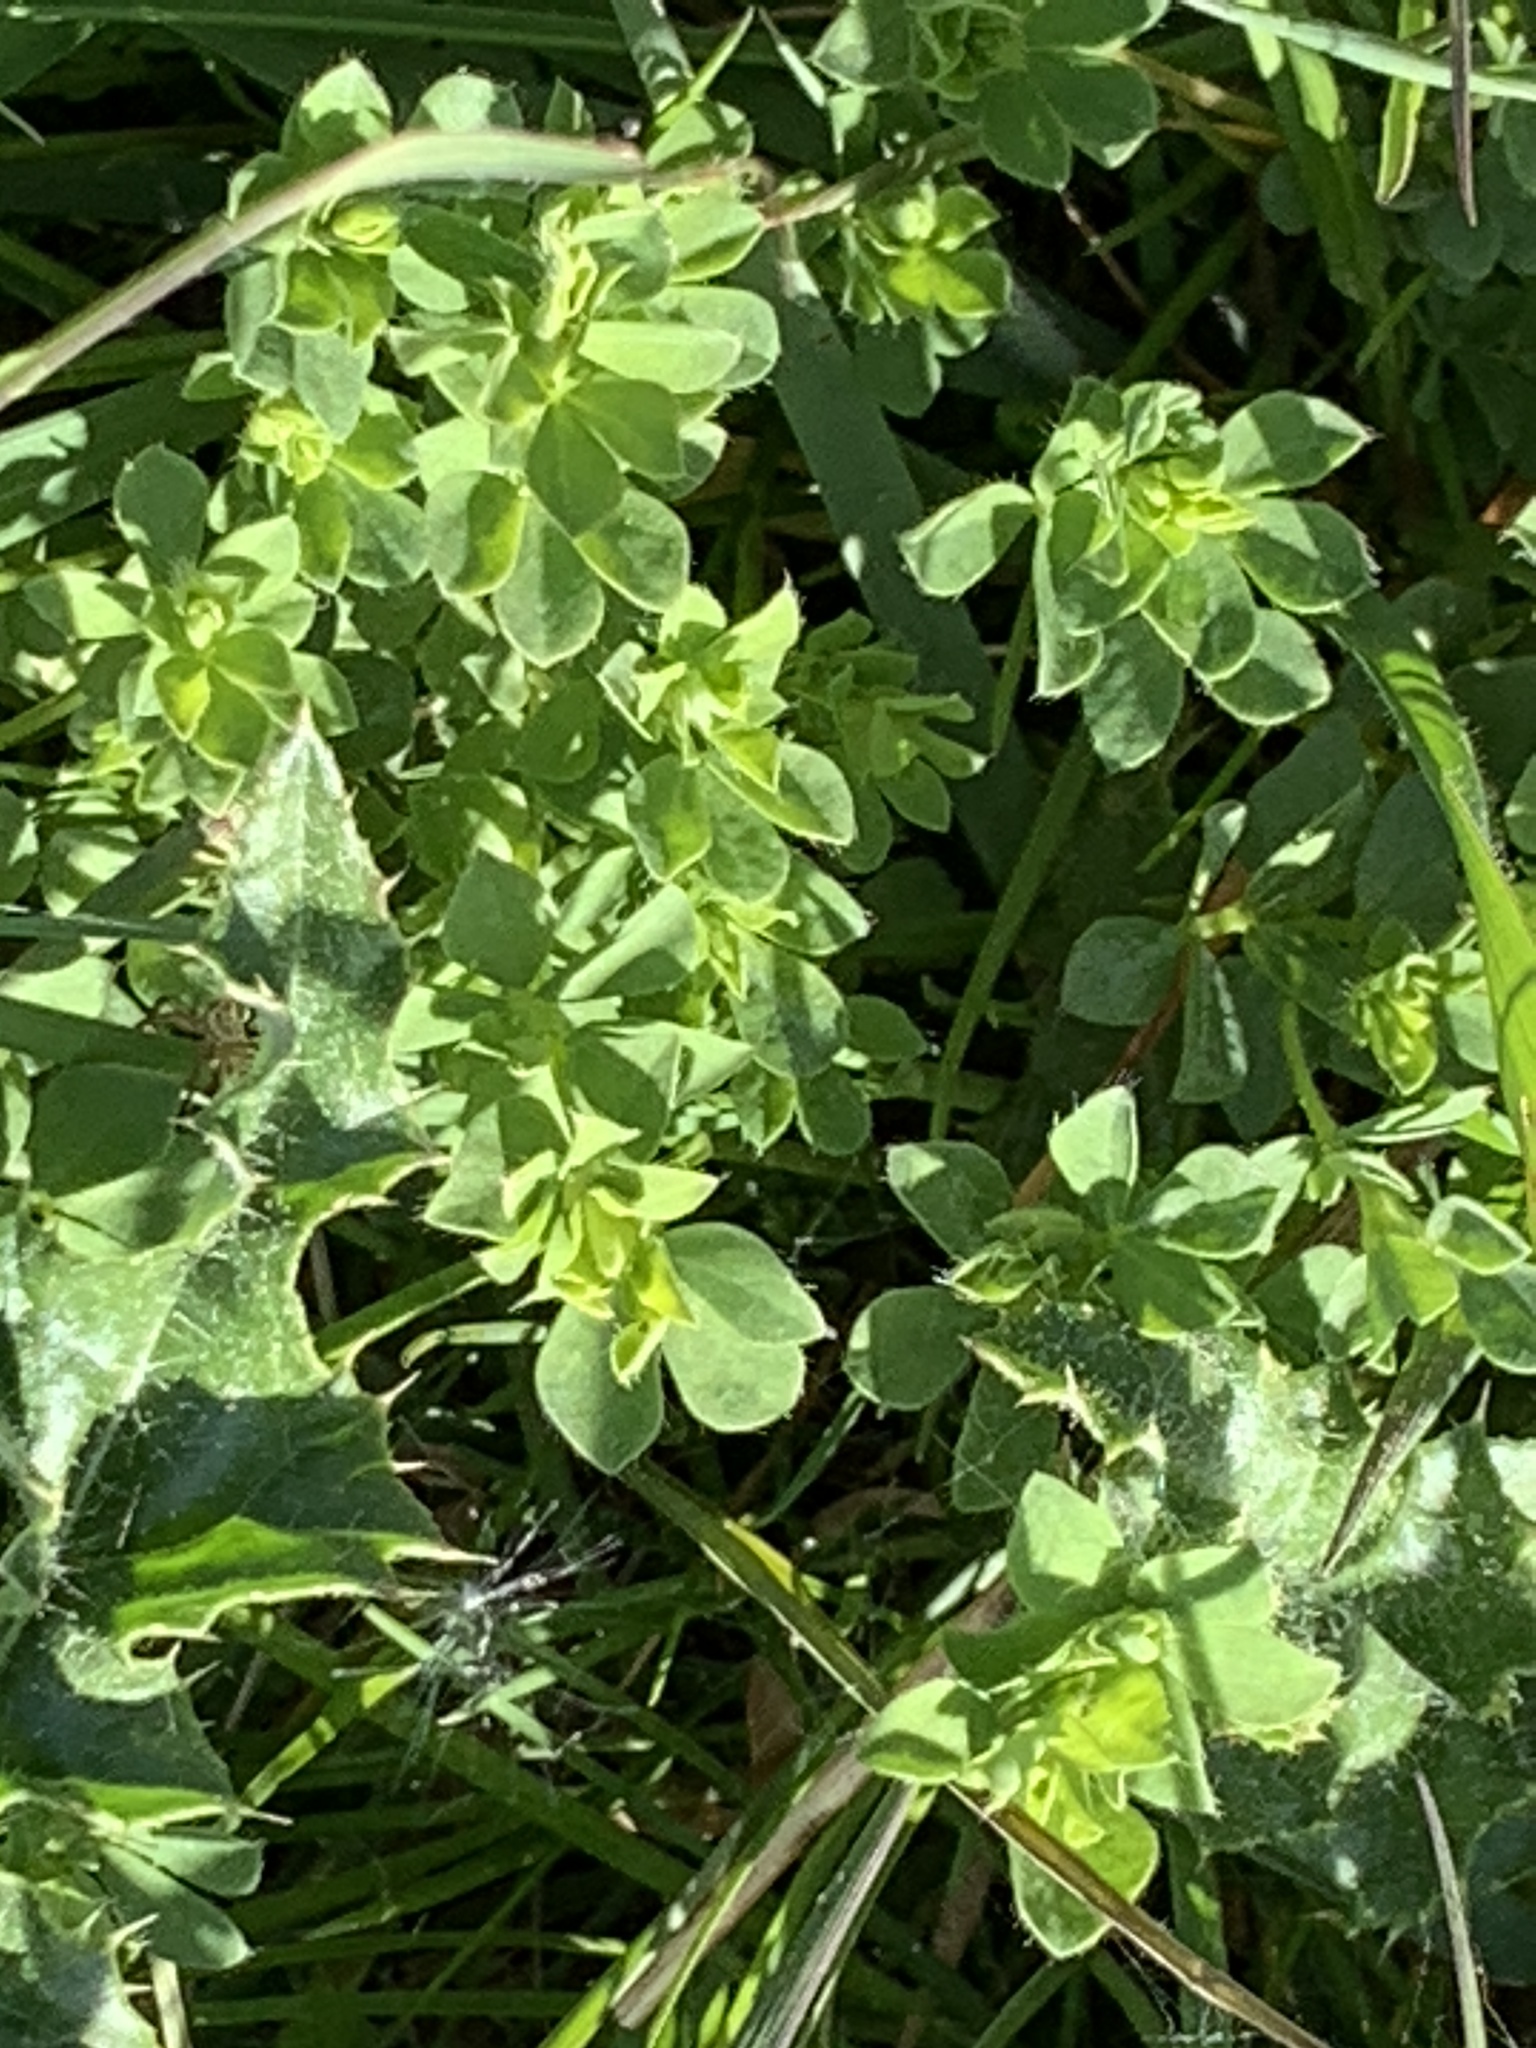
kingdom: Plantae
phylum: Tracheophyta
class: Magnoliopsida
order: Fabales
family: Fabaceae
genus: Lotus
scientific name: Lotus corniculatus
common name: Common bird's-foot-trefoil
